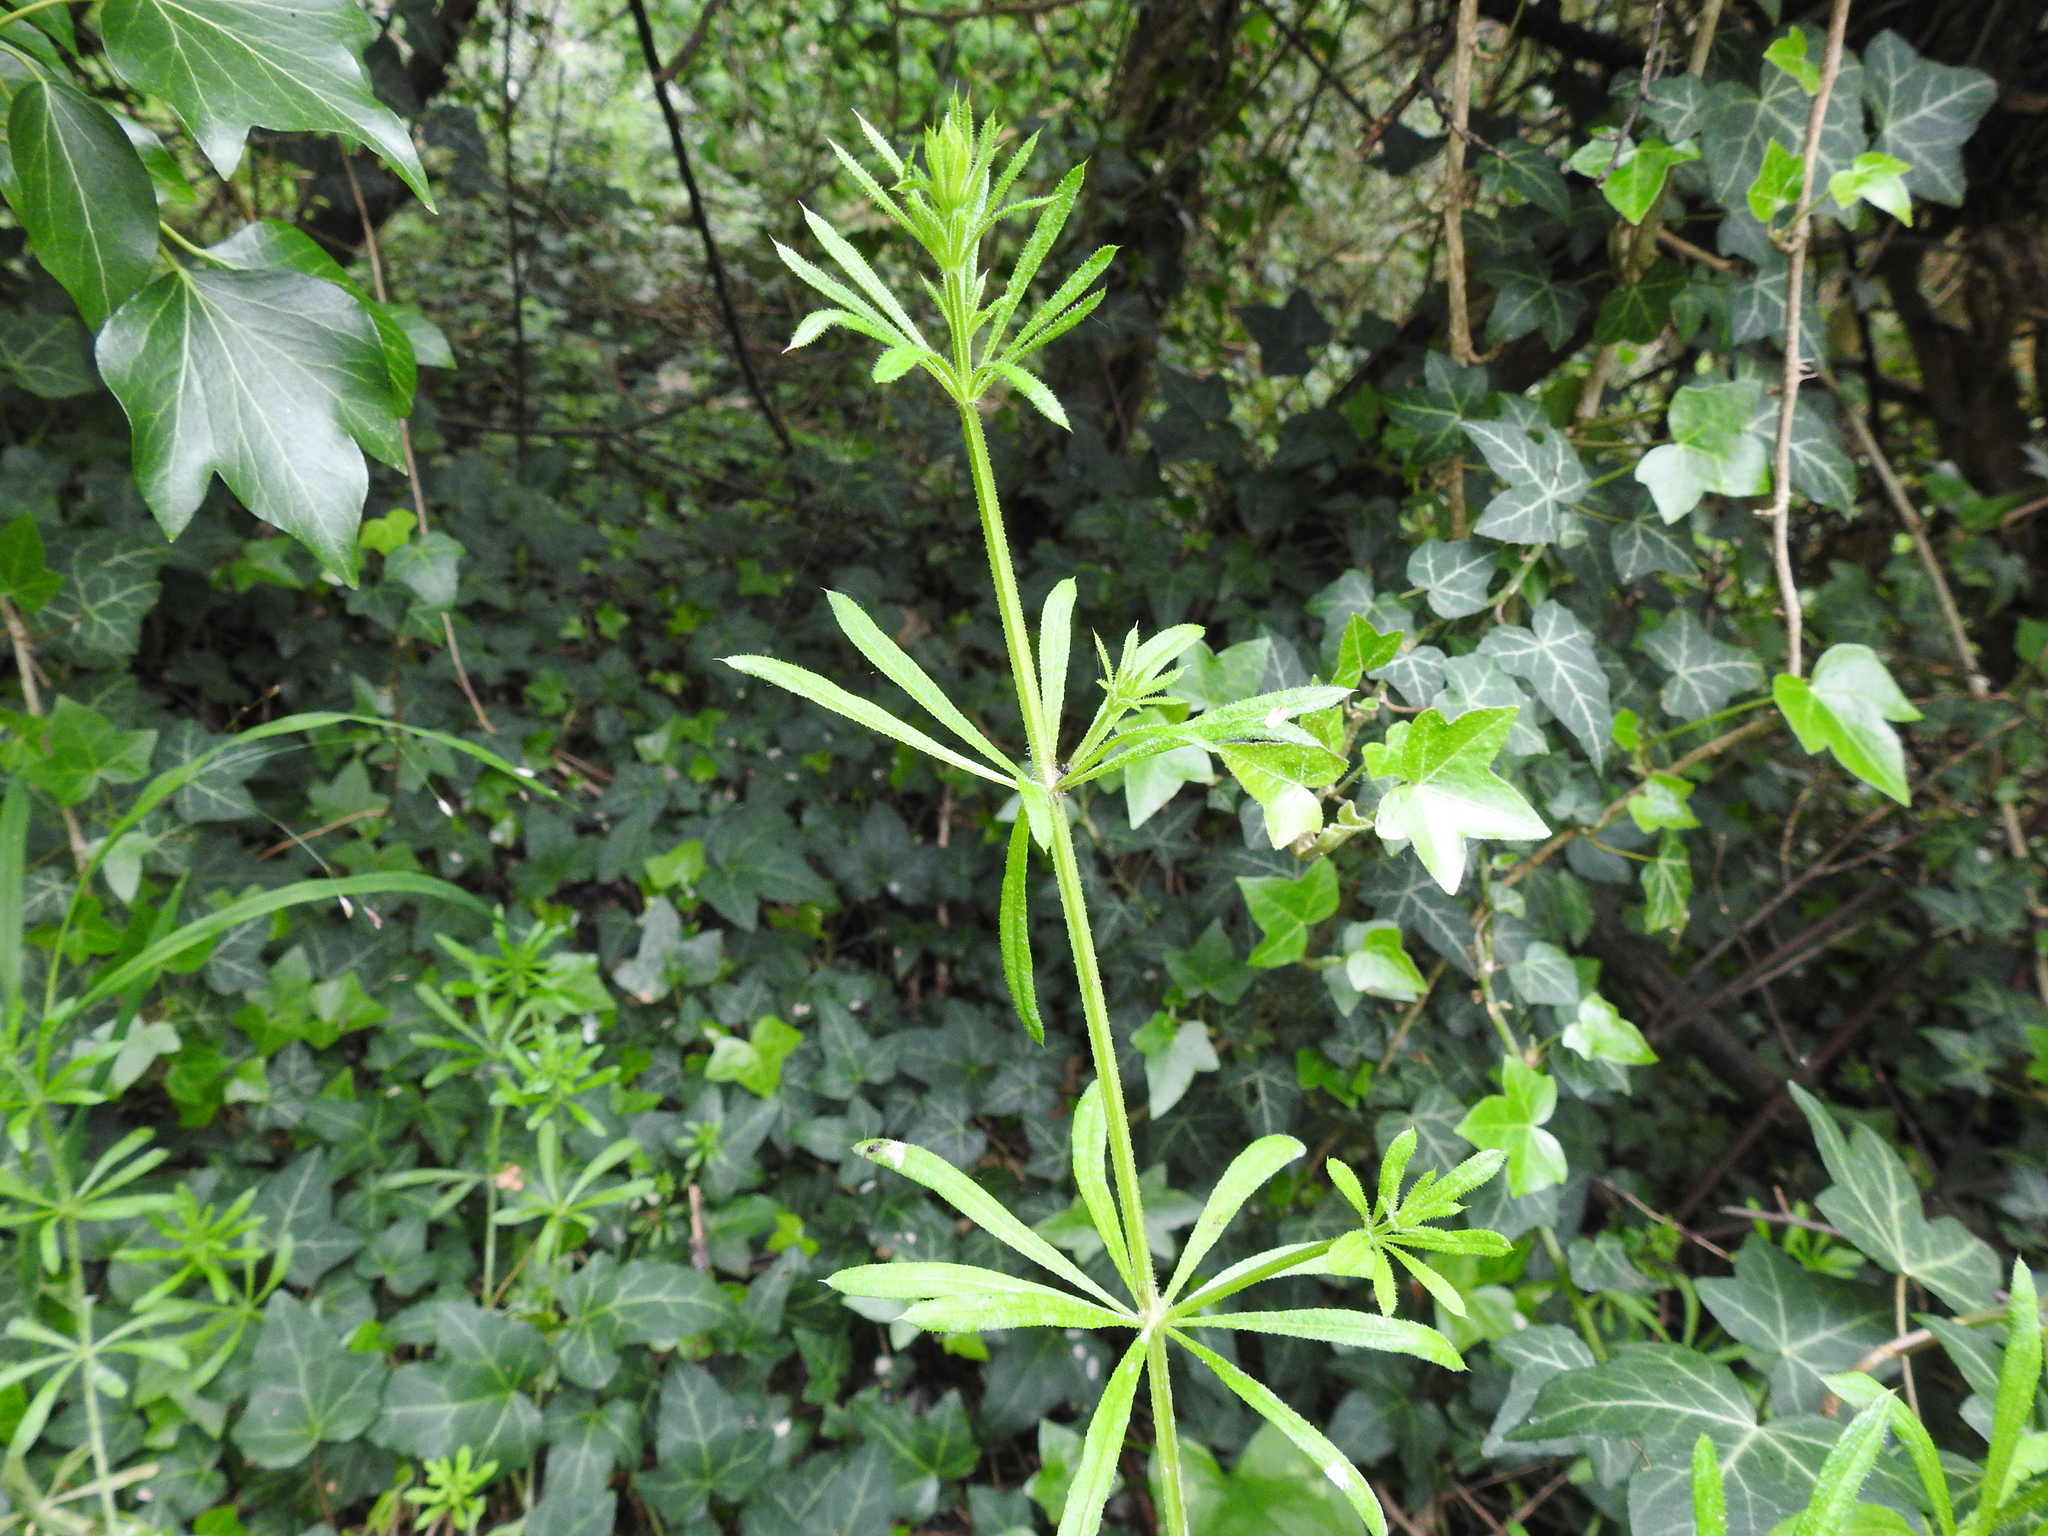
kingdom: Plantae
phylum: Tracheophyta
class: Magnoliopsida
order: Gentianales
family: Rubiaceae
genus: Galium
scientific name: Galium aparine
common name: Cleavers
